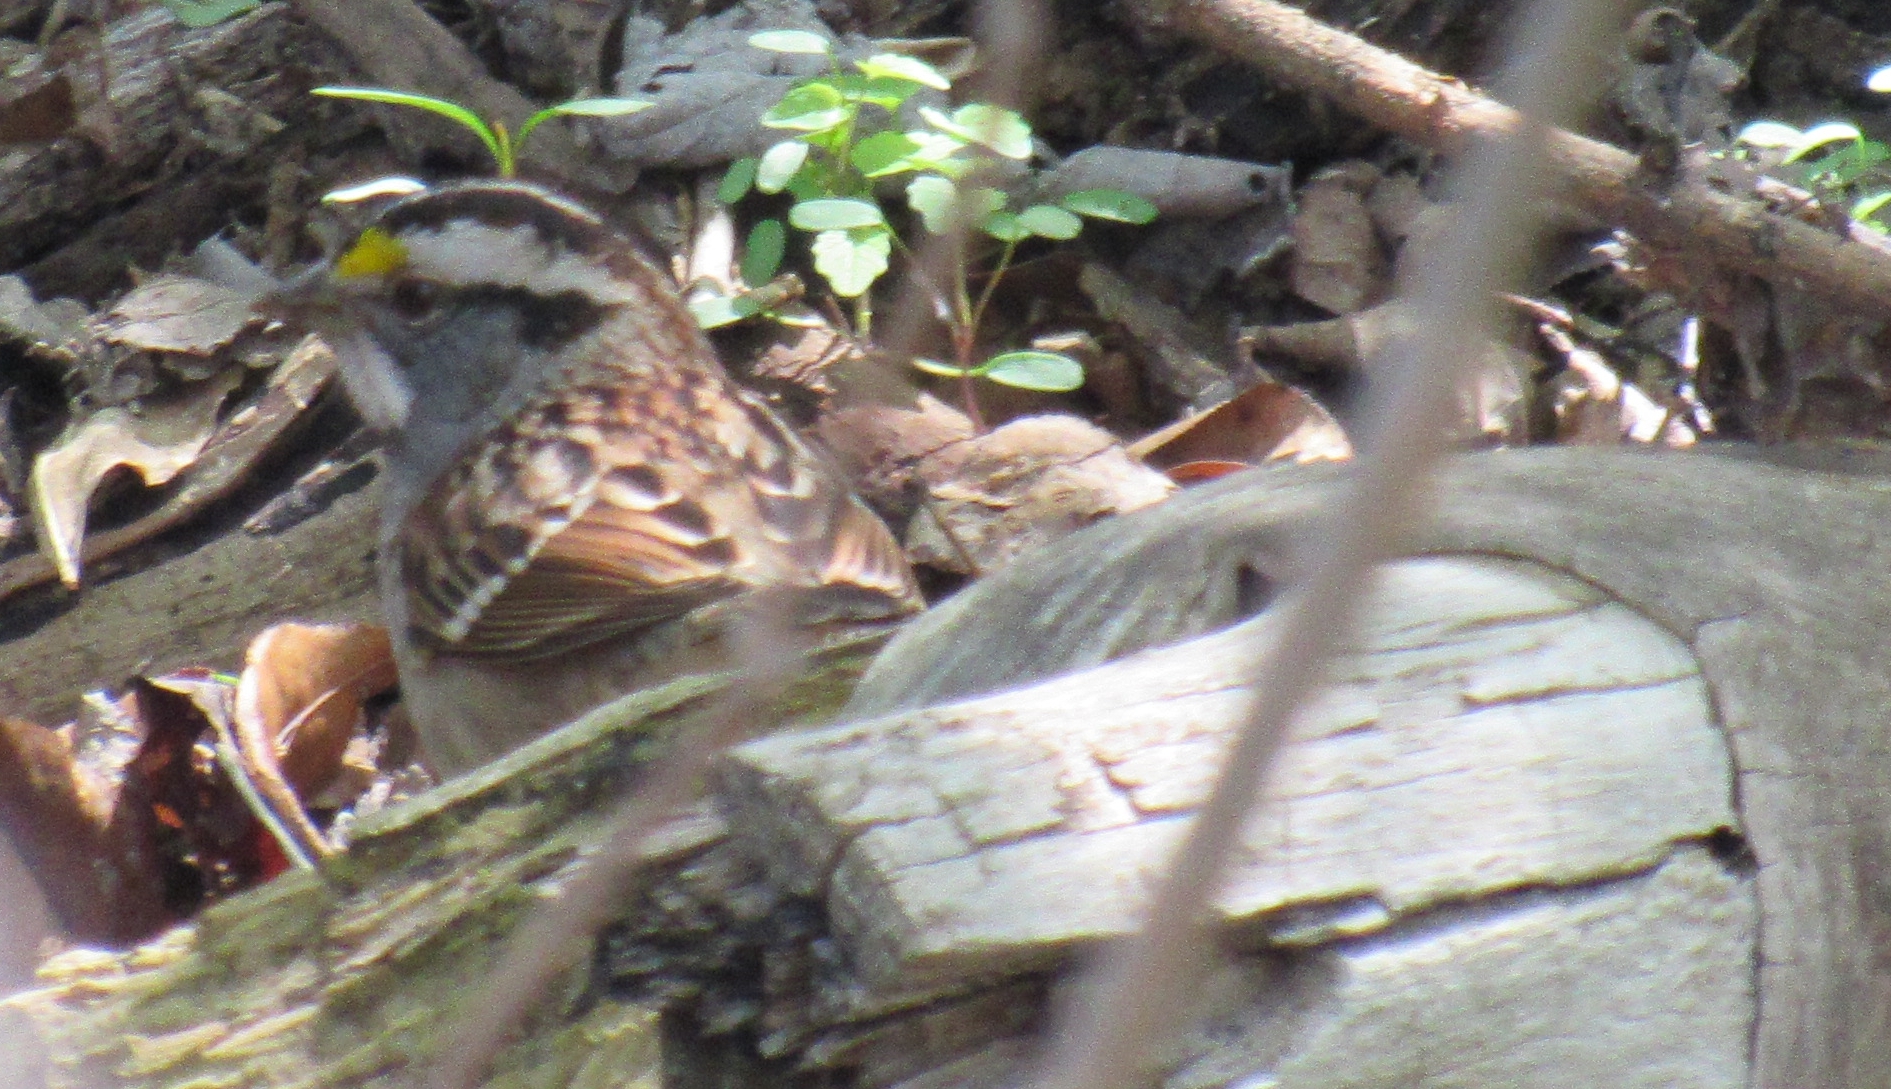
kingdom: Animalia
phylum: Chordata
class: Aves
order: Passeriformes
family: Passerellidae
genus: Zonotrichia
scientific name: Zonotrichia albicollis
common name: White-throated sparrow
